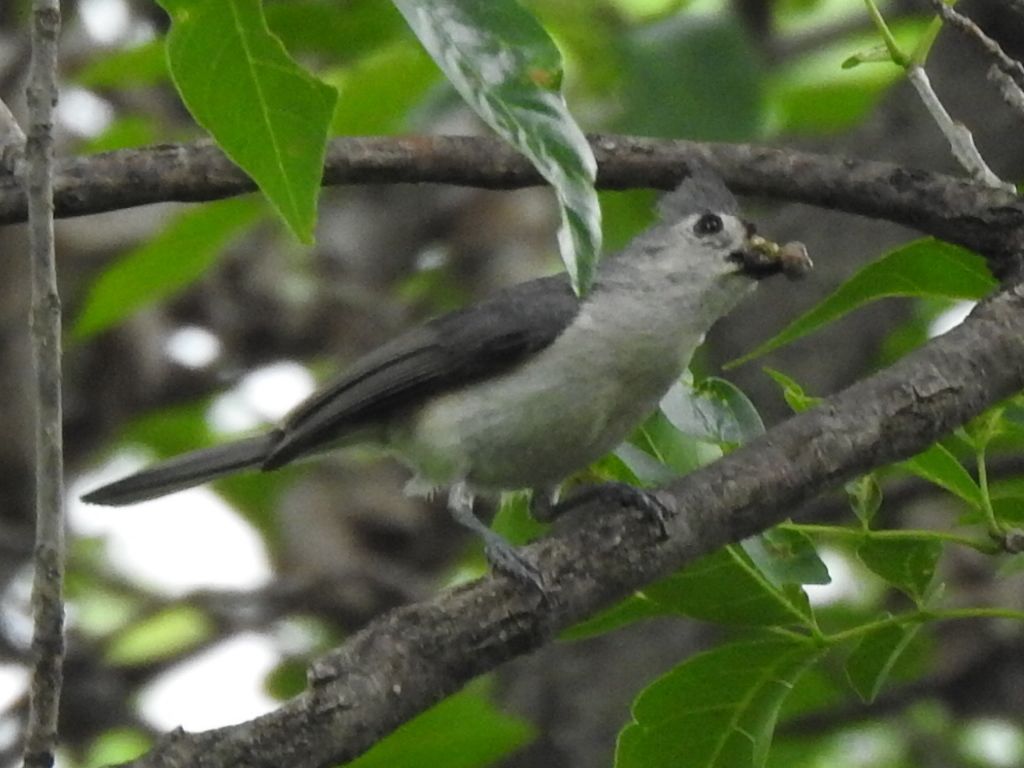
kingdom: Animalia
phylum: Chordata
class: Aves
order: Passeriformes
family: Paridae
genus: Baeolophus
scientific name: Baeolophus bicolor
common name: Tufted titmouse
